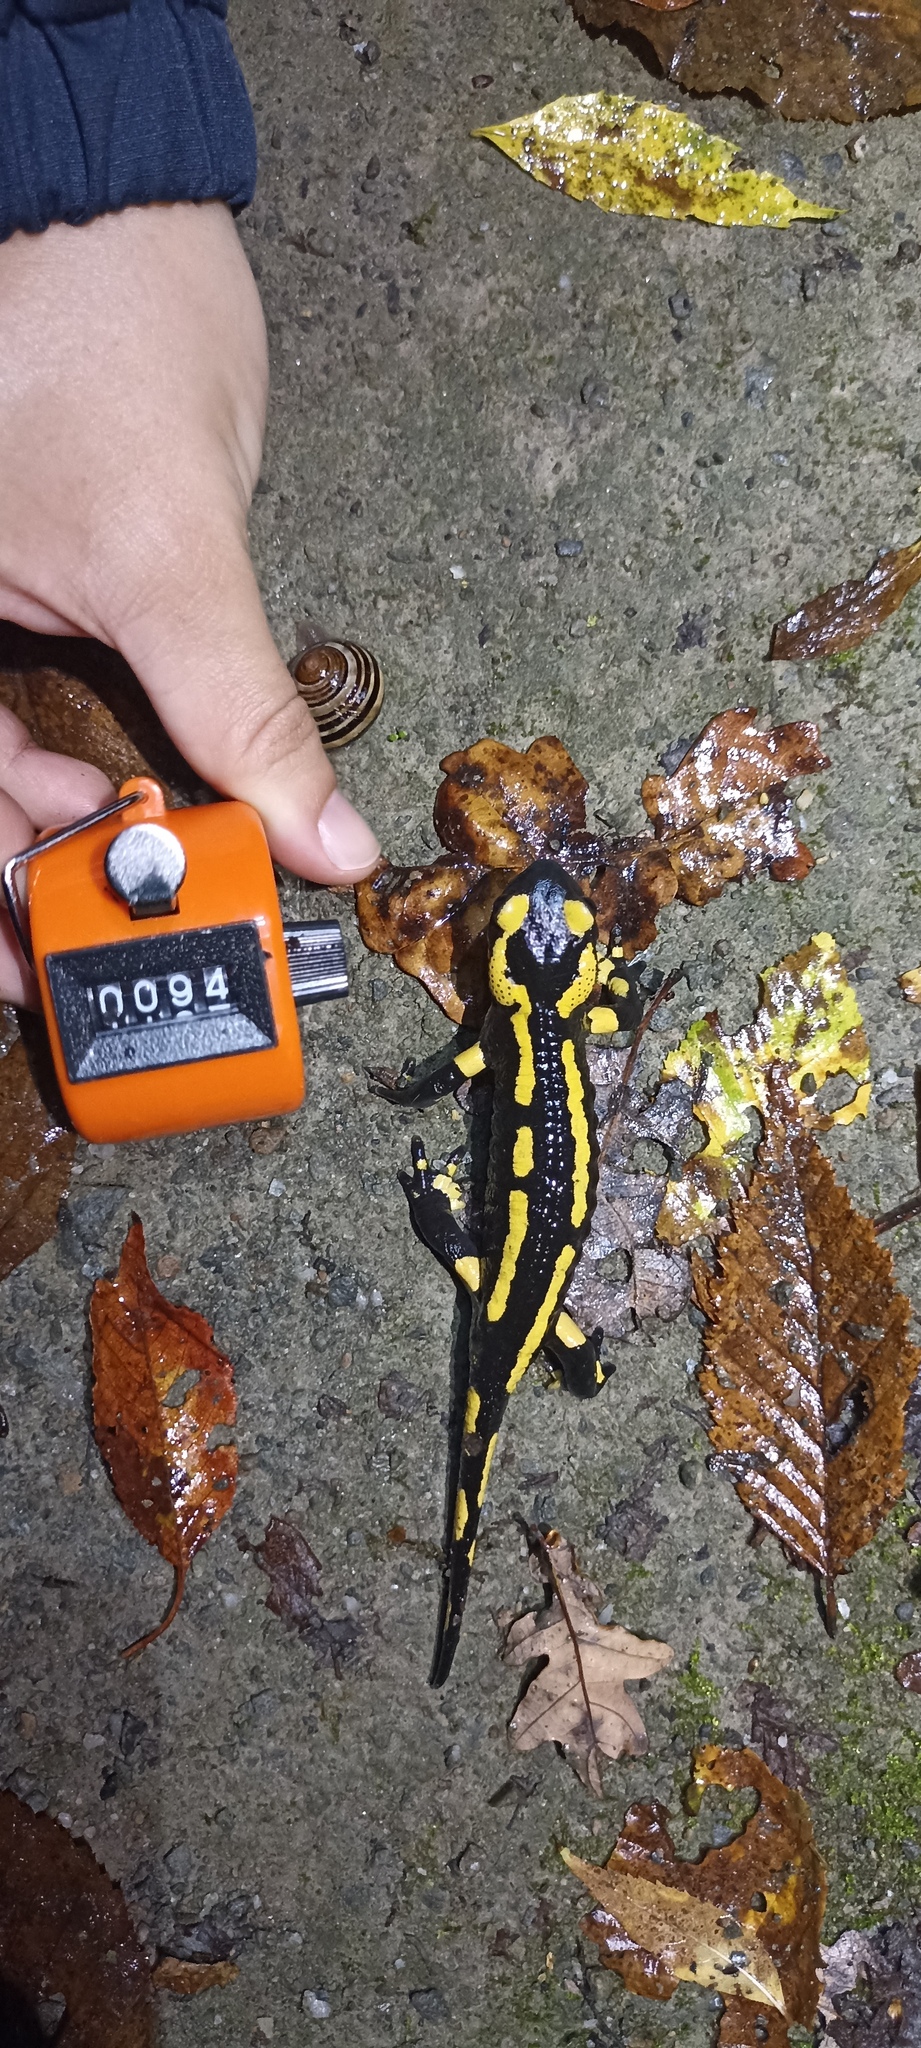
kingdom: Animalia
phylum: Chordata
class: Amphibia
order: Caudata
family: Salamandridae
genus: Salamandra
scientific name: Salamandra salamandra
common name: Fire salamander
